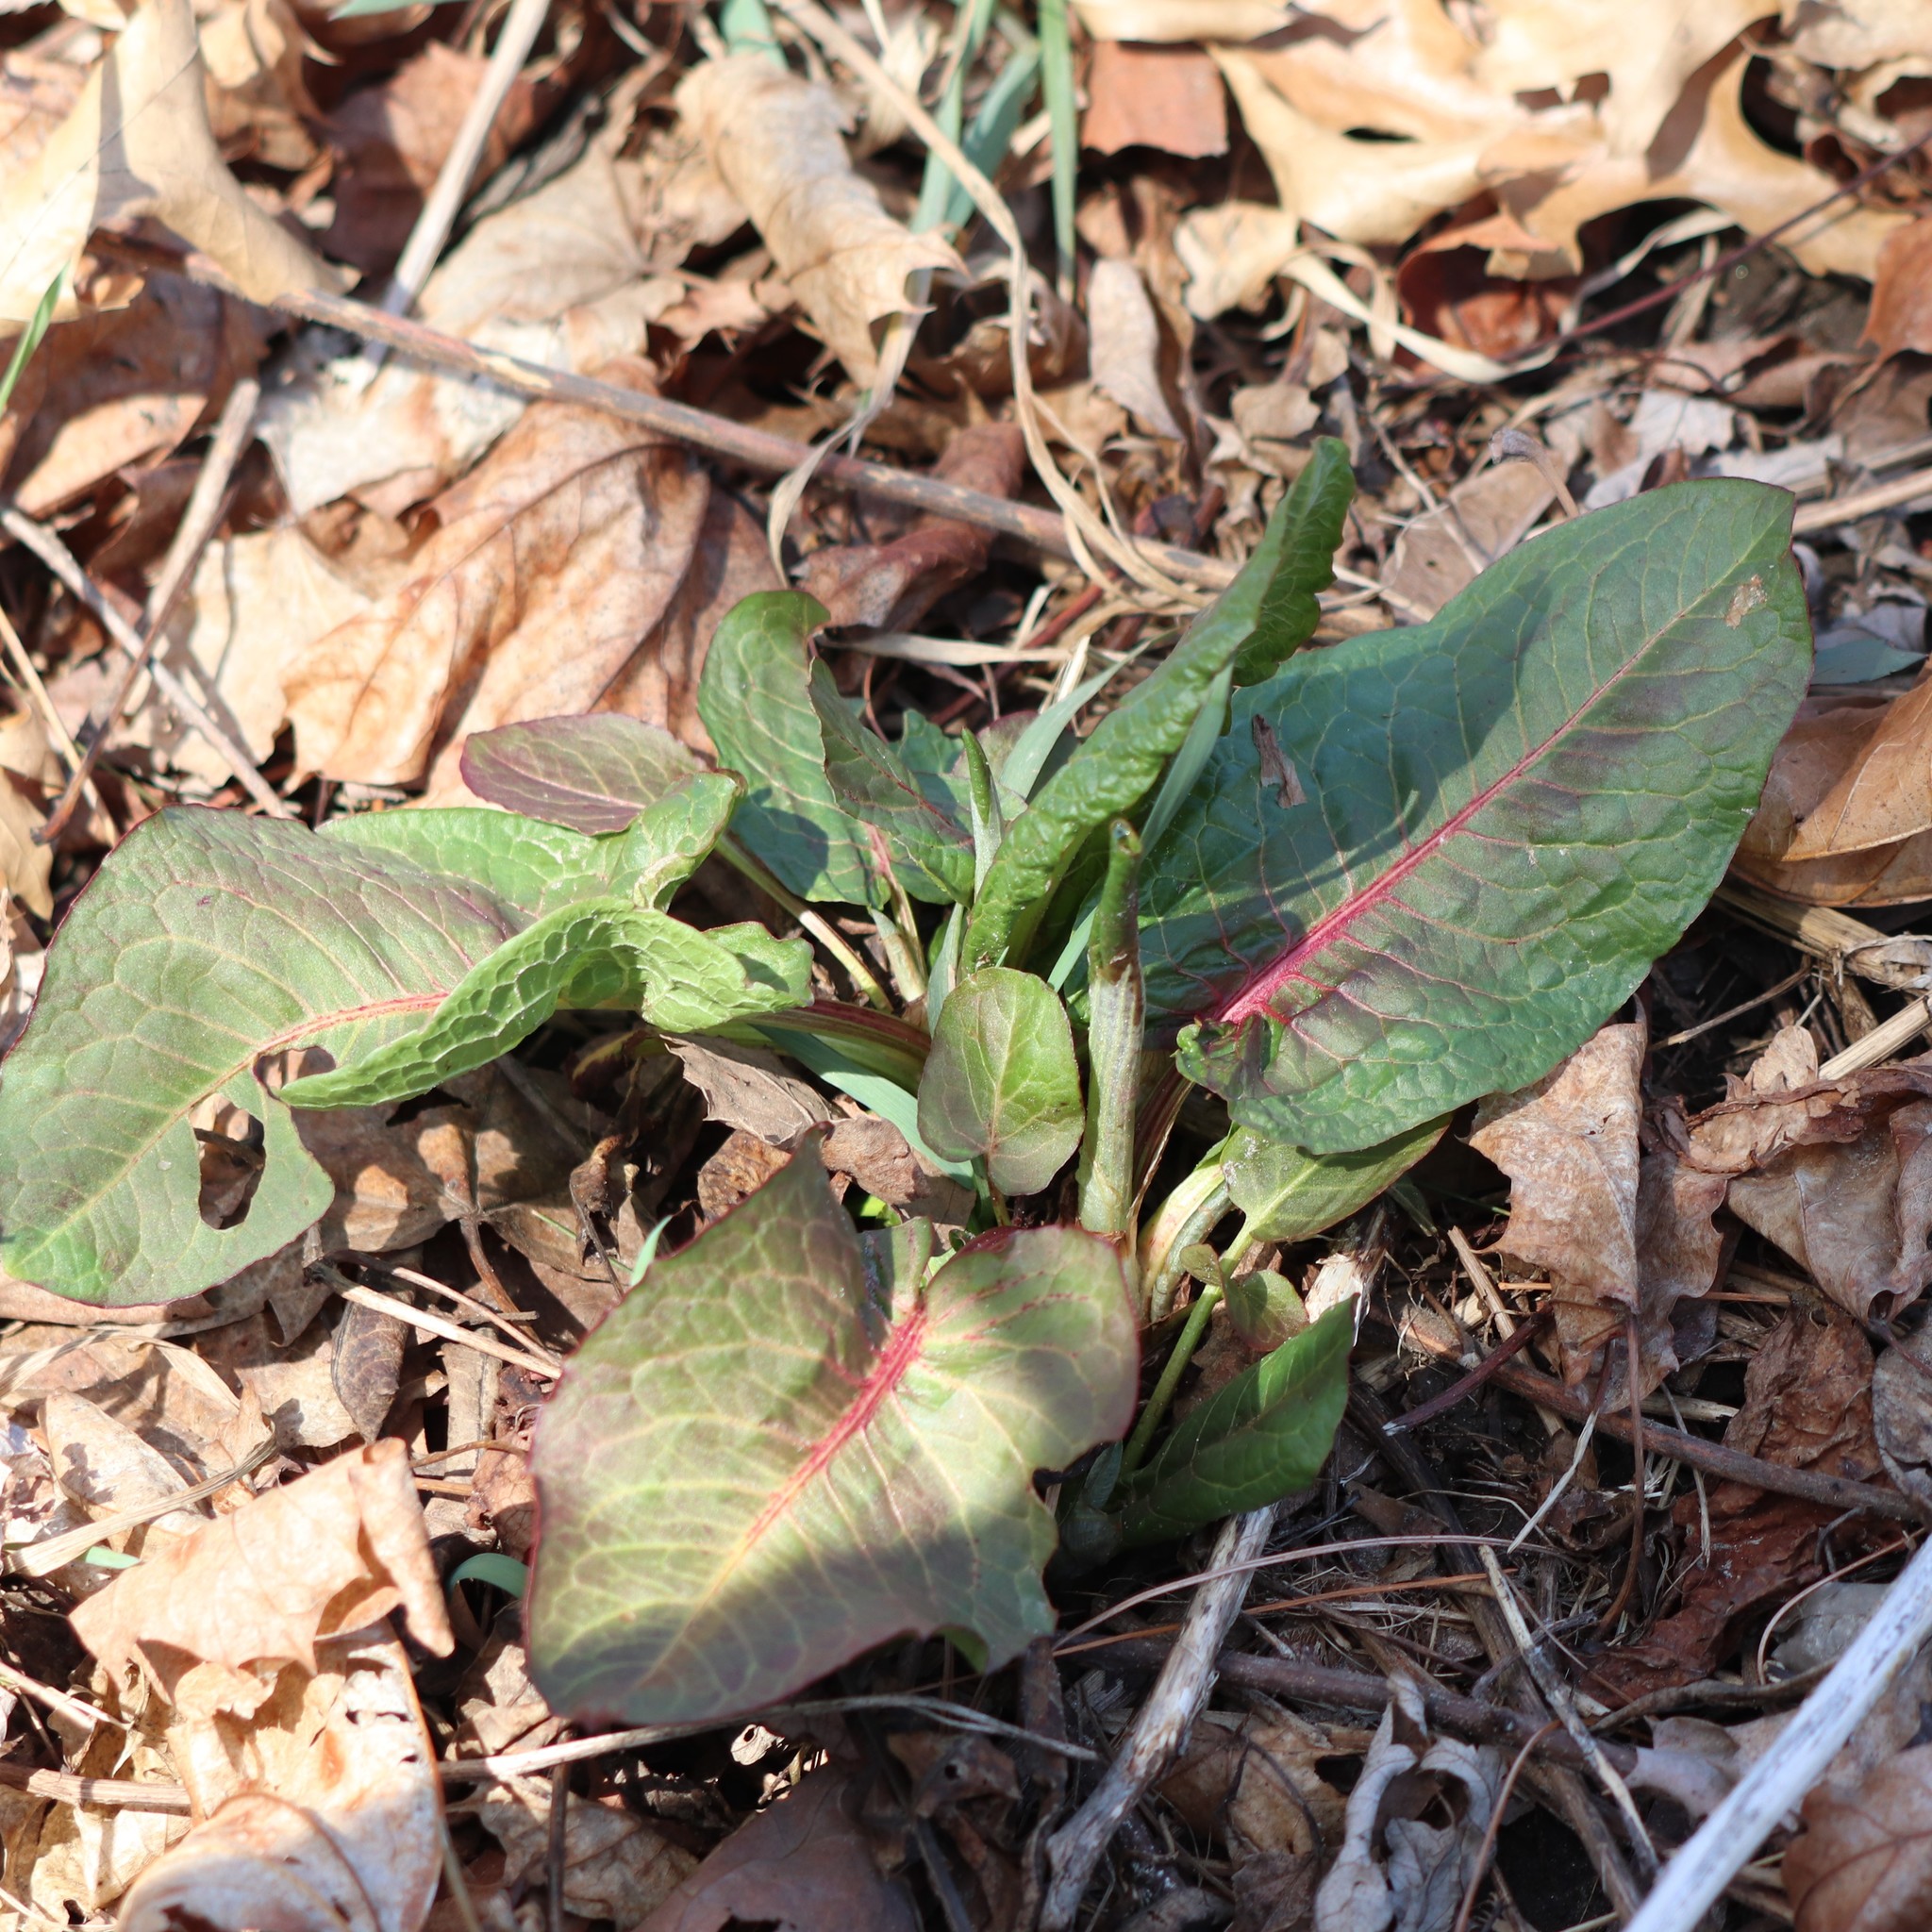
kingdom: Plantae
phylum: Tracheophyta
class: Magnoliopsida
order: Caryophyllales
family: Polygonaceae
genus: Rumex
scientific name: Rumex obtusifolius
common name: Bitter dock
